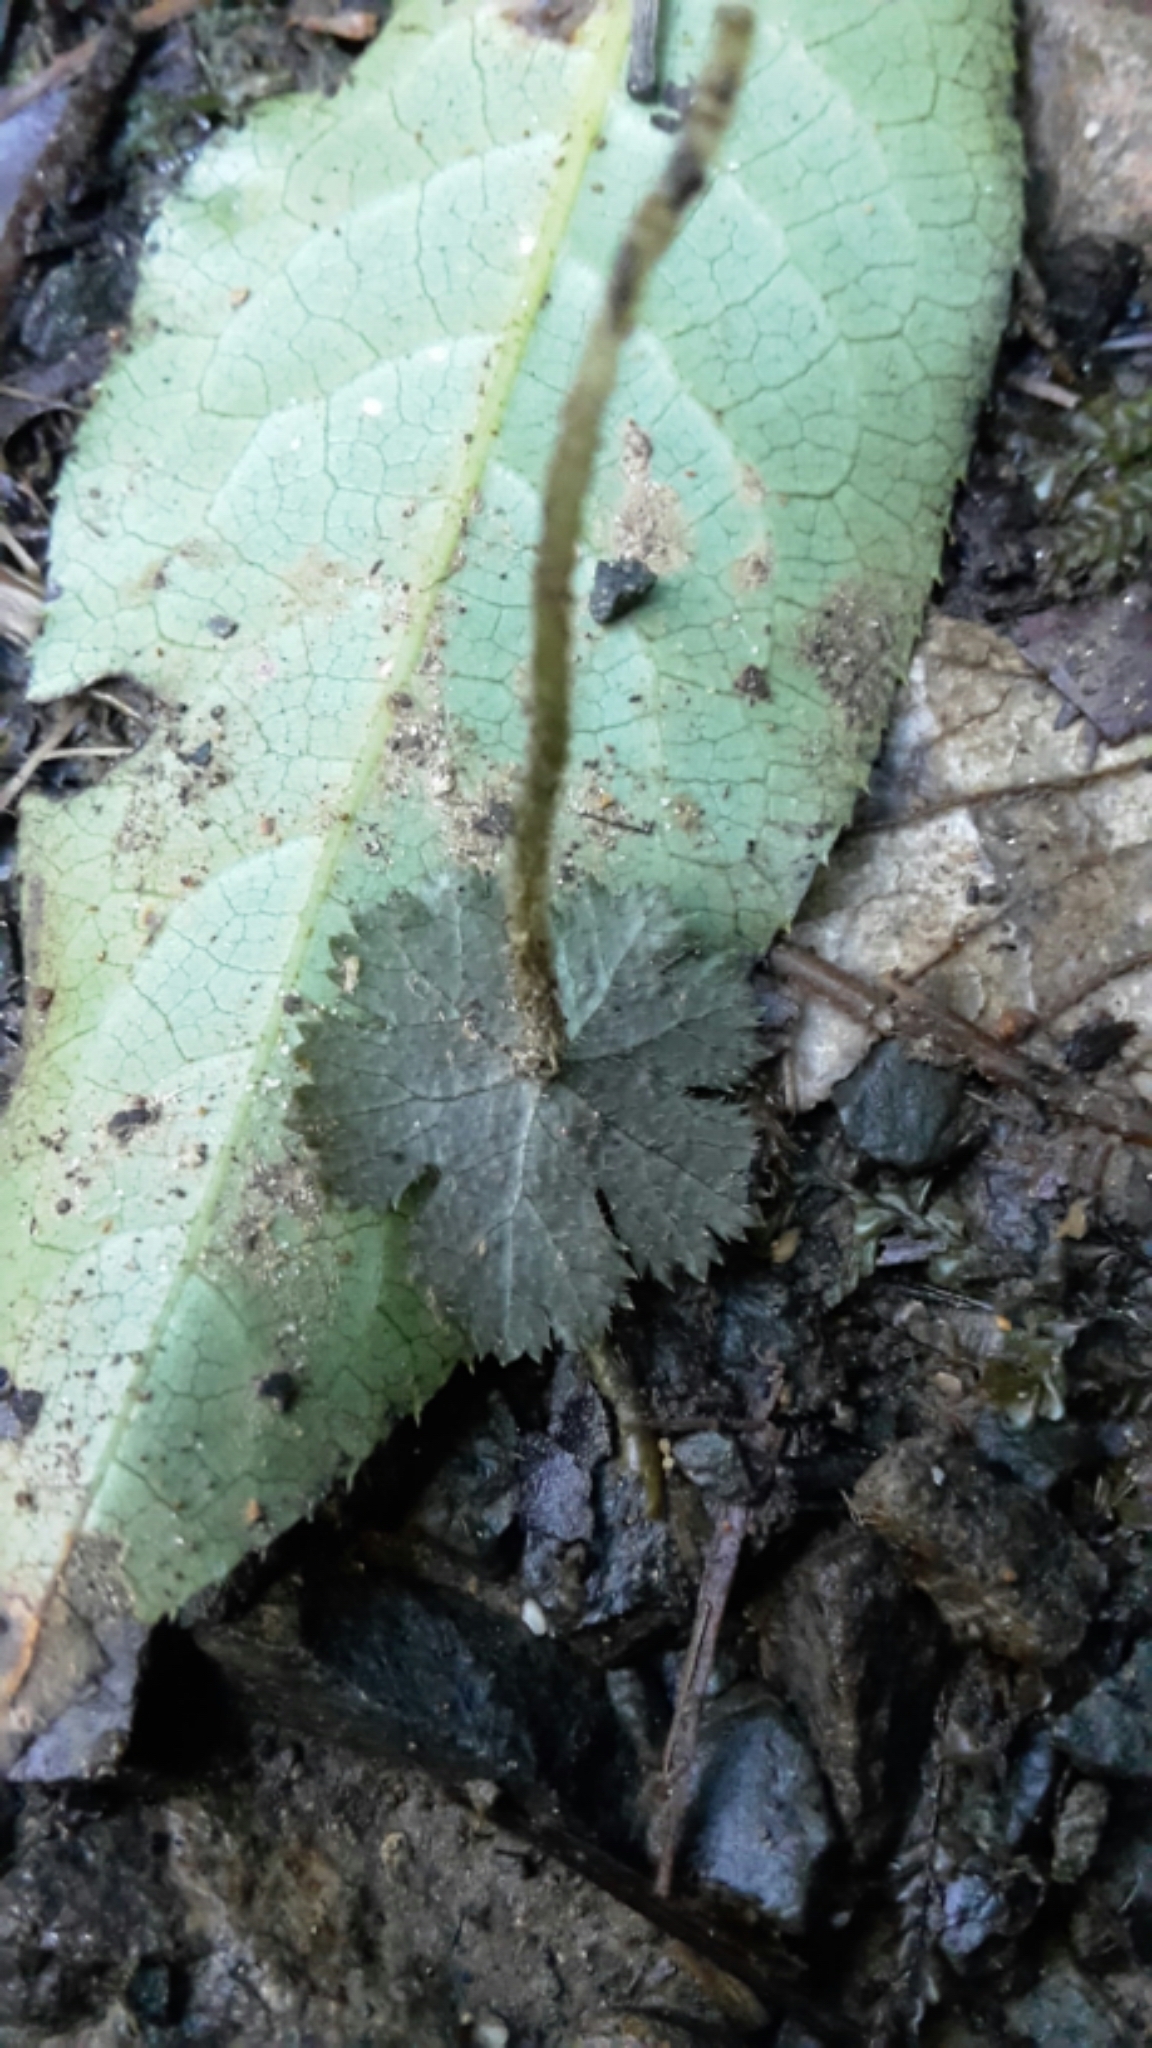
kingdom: Plantae
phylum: Tracheophyta
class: Magnoliopsida
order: Apiales
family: Araliaceae
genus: Hydrocotyle
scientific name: Hydrocotyle elongata
